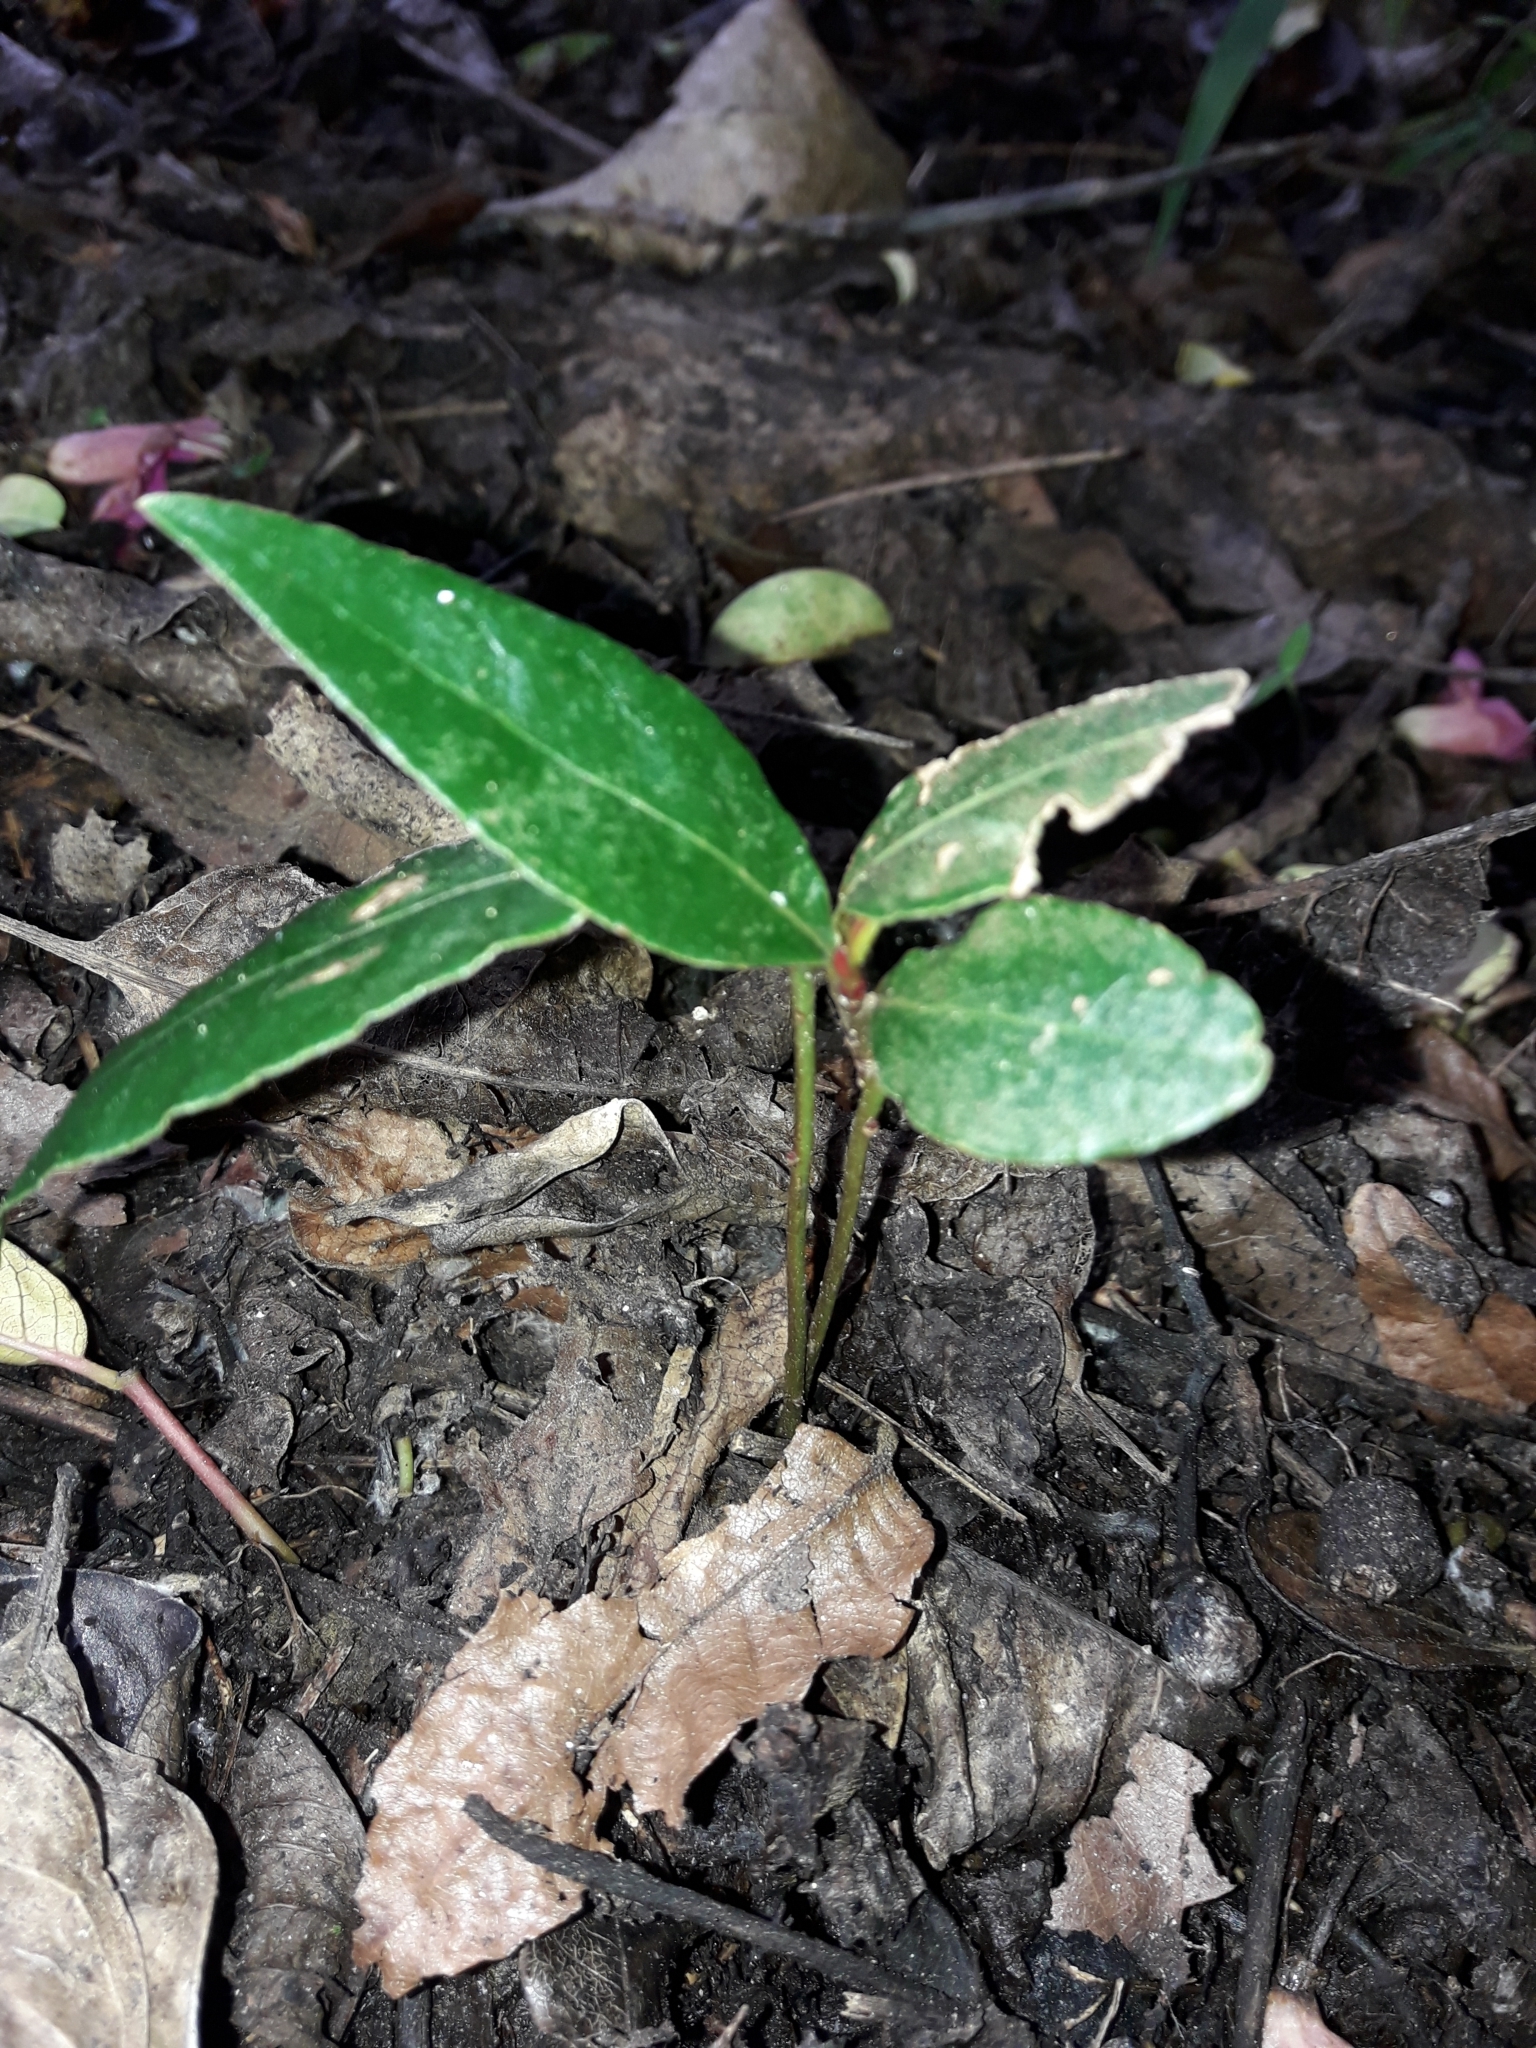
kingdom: Plantae
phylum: Tracheophyta
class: Magnoliopsida
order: Laurales
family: Lauraceae
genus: Laurus
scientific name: Laurus nobilis
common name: Bay
